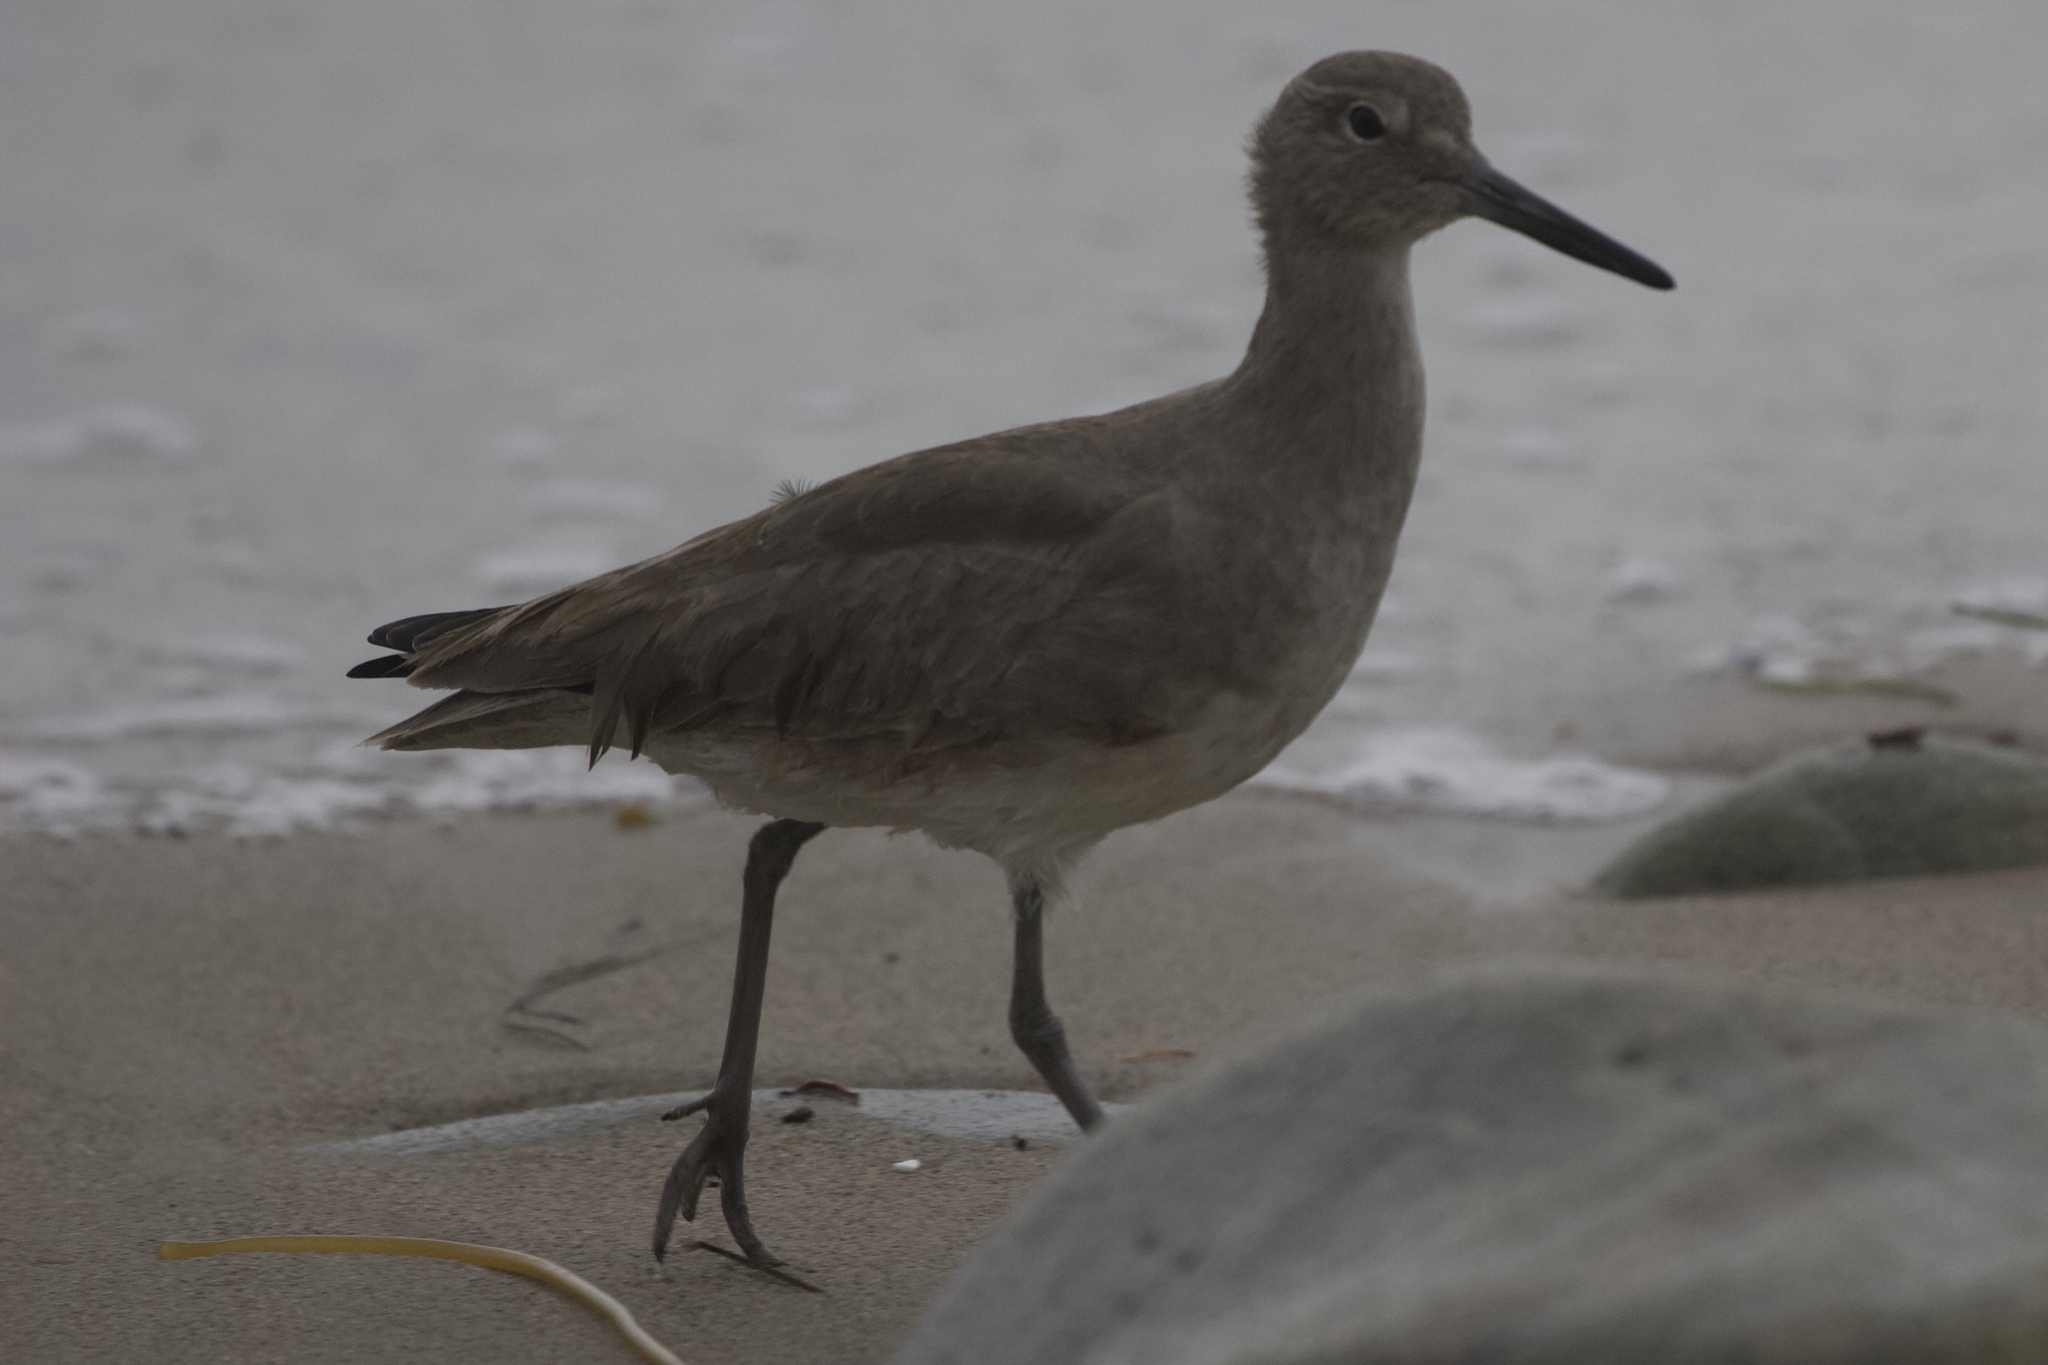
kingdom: Animalia
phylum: Chordata
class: Aves
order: Charadriiformes
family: Scolopacidae
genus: Tringa
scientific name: Tringa semipalmata
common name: Willet
